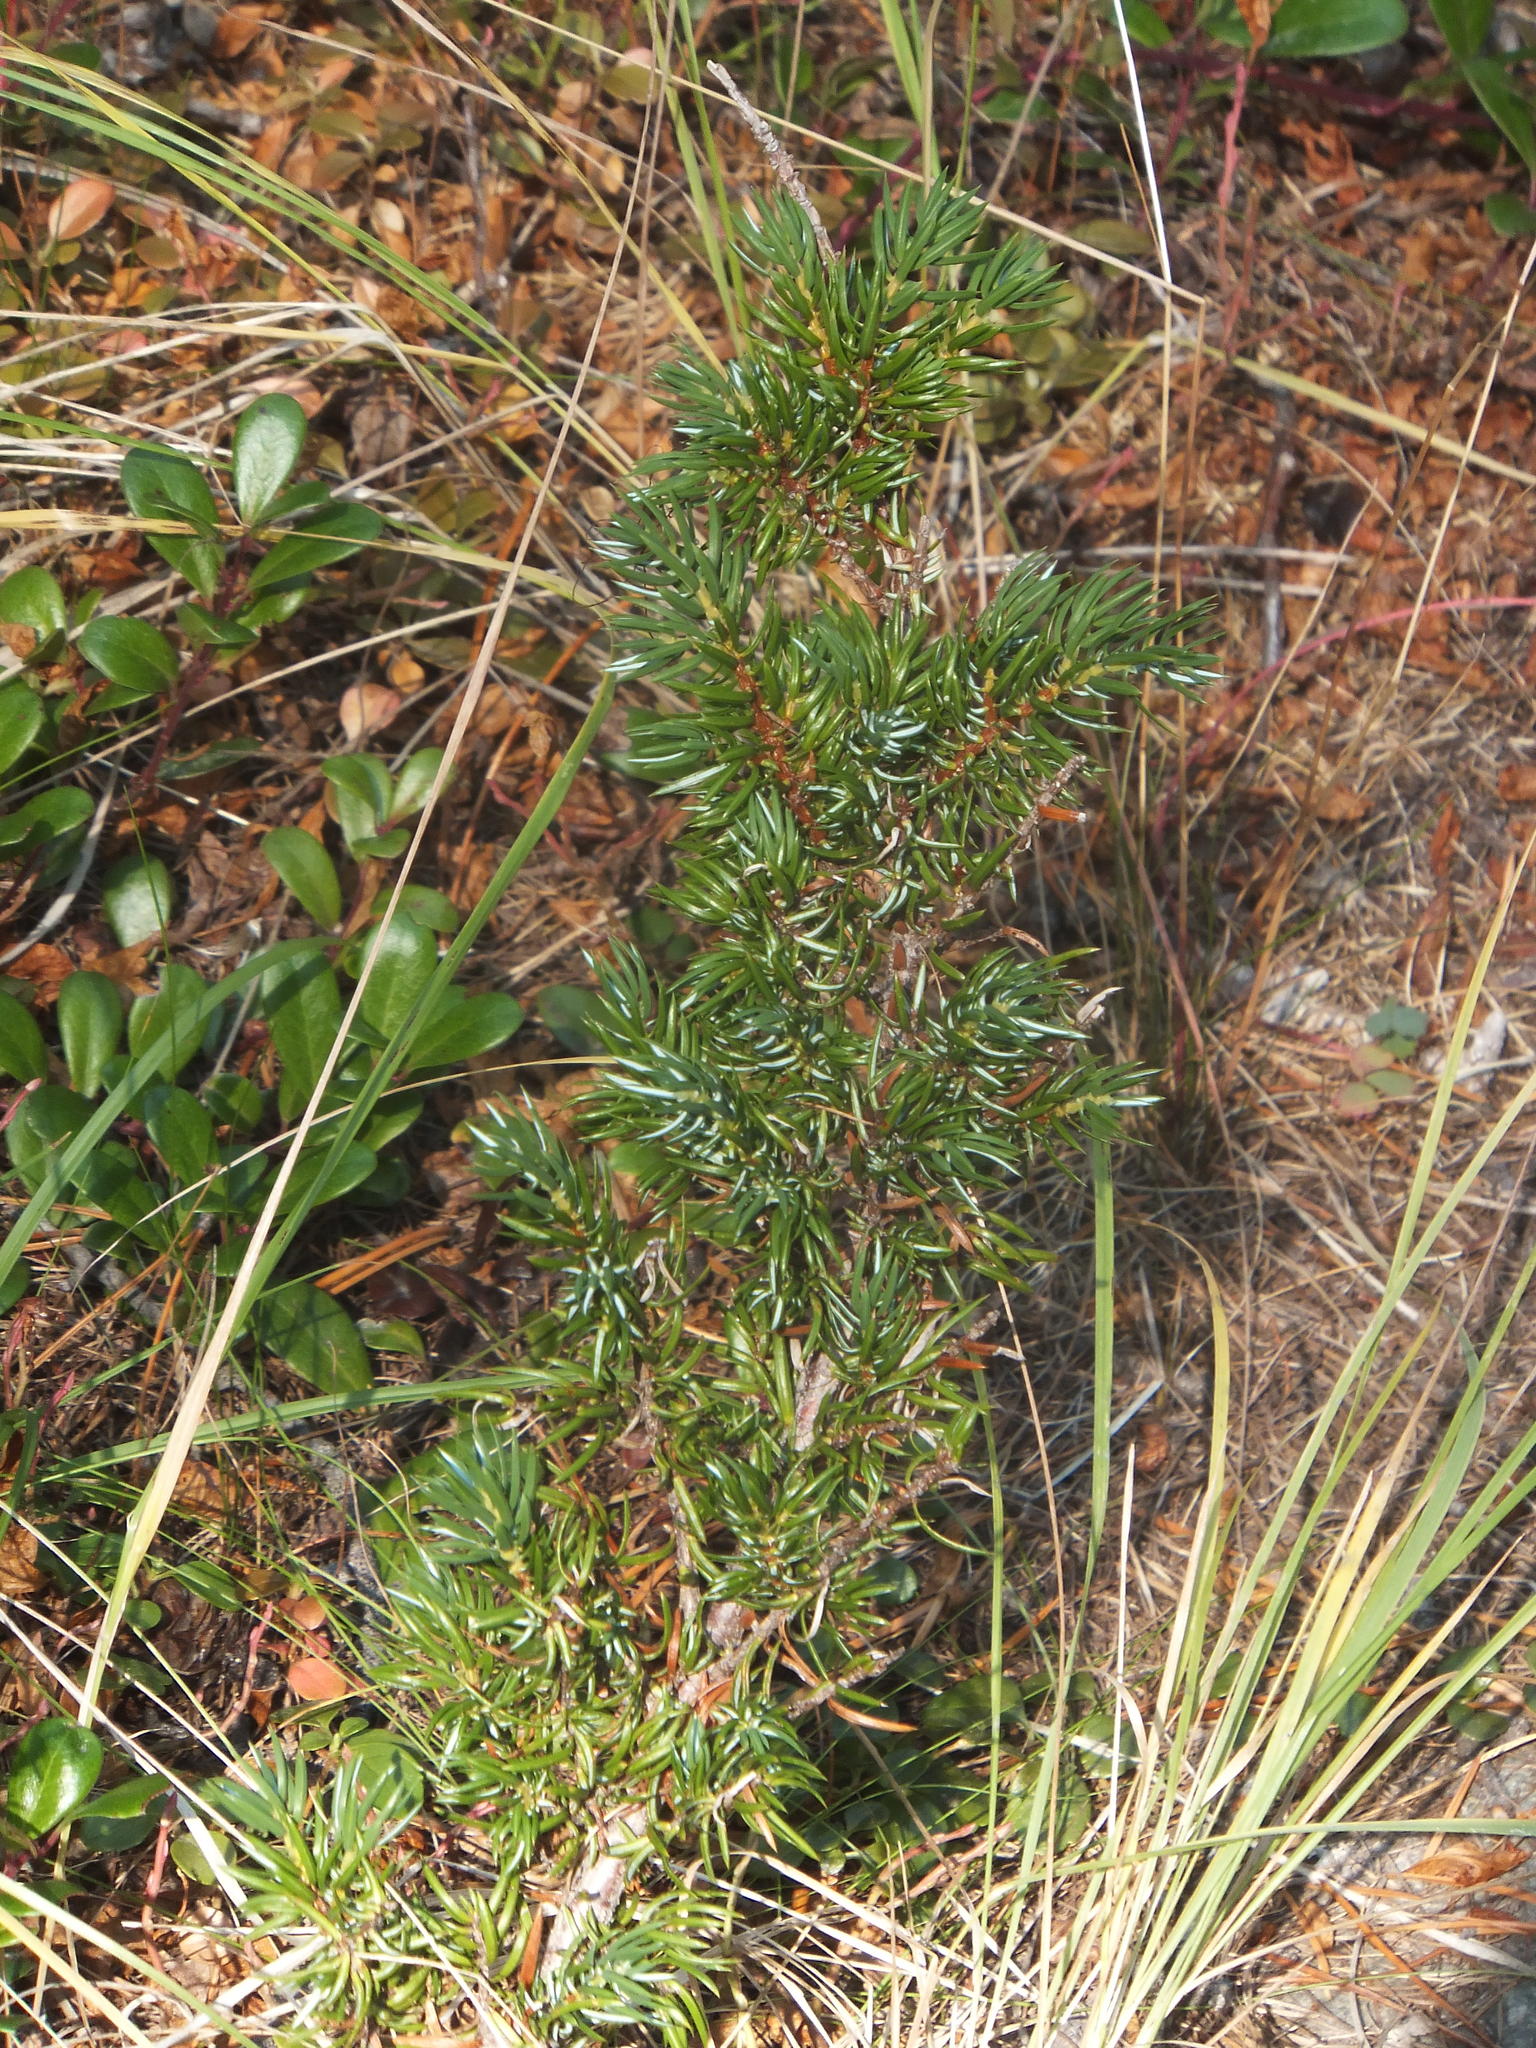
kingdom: Plantae
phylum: Tracheophyta
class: Pinopsida
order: Pinales
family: Cupressaceae
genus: Juniperus
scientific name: Juniperus communis
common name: Common juniper
